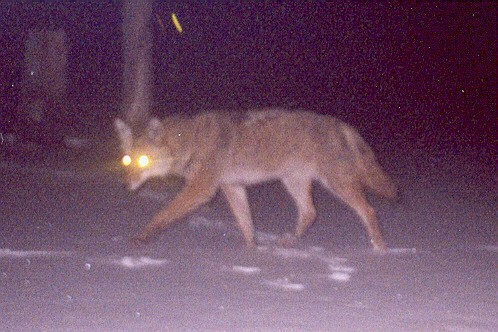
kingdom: Animalia
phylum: Chordata
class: Mammalia
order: Carnivora
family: Canidae
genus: Canis
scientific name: Canis latrans
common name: Coyote
